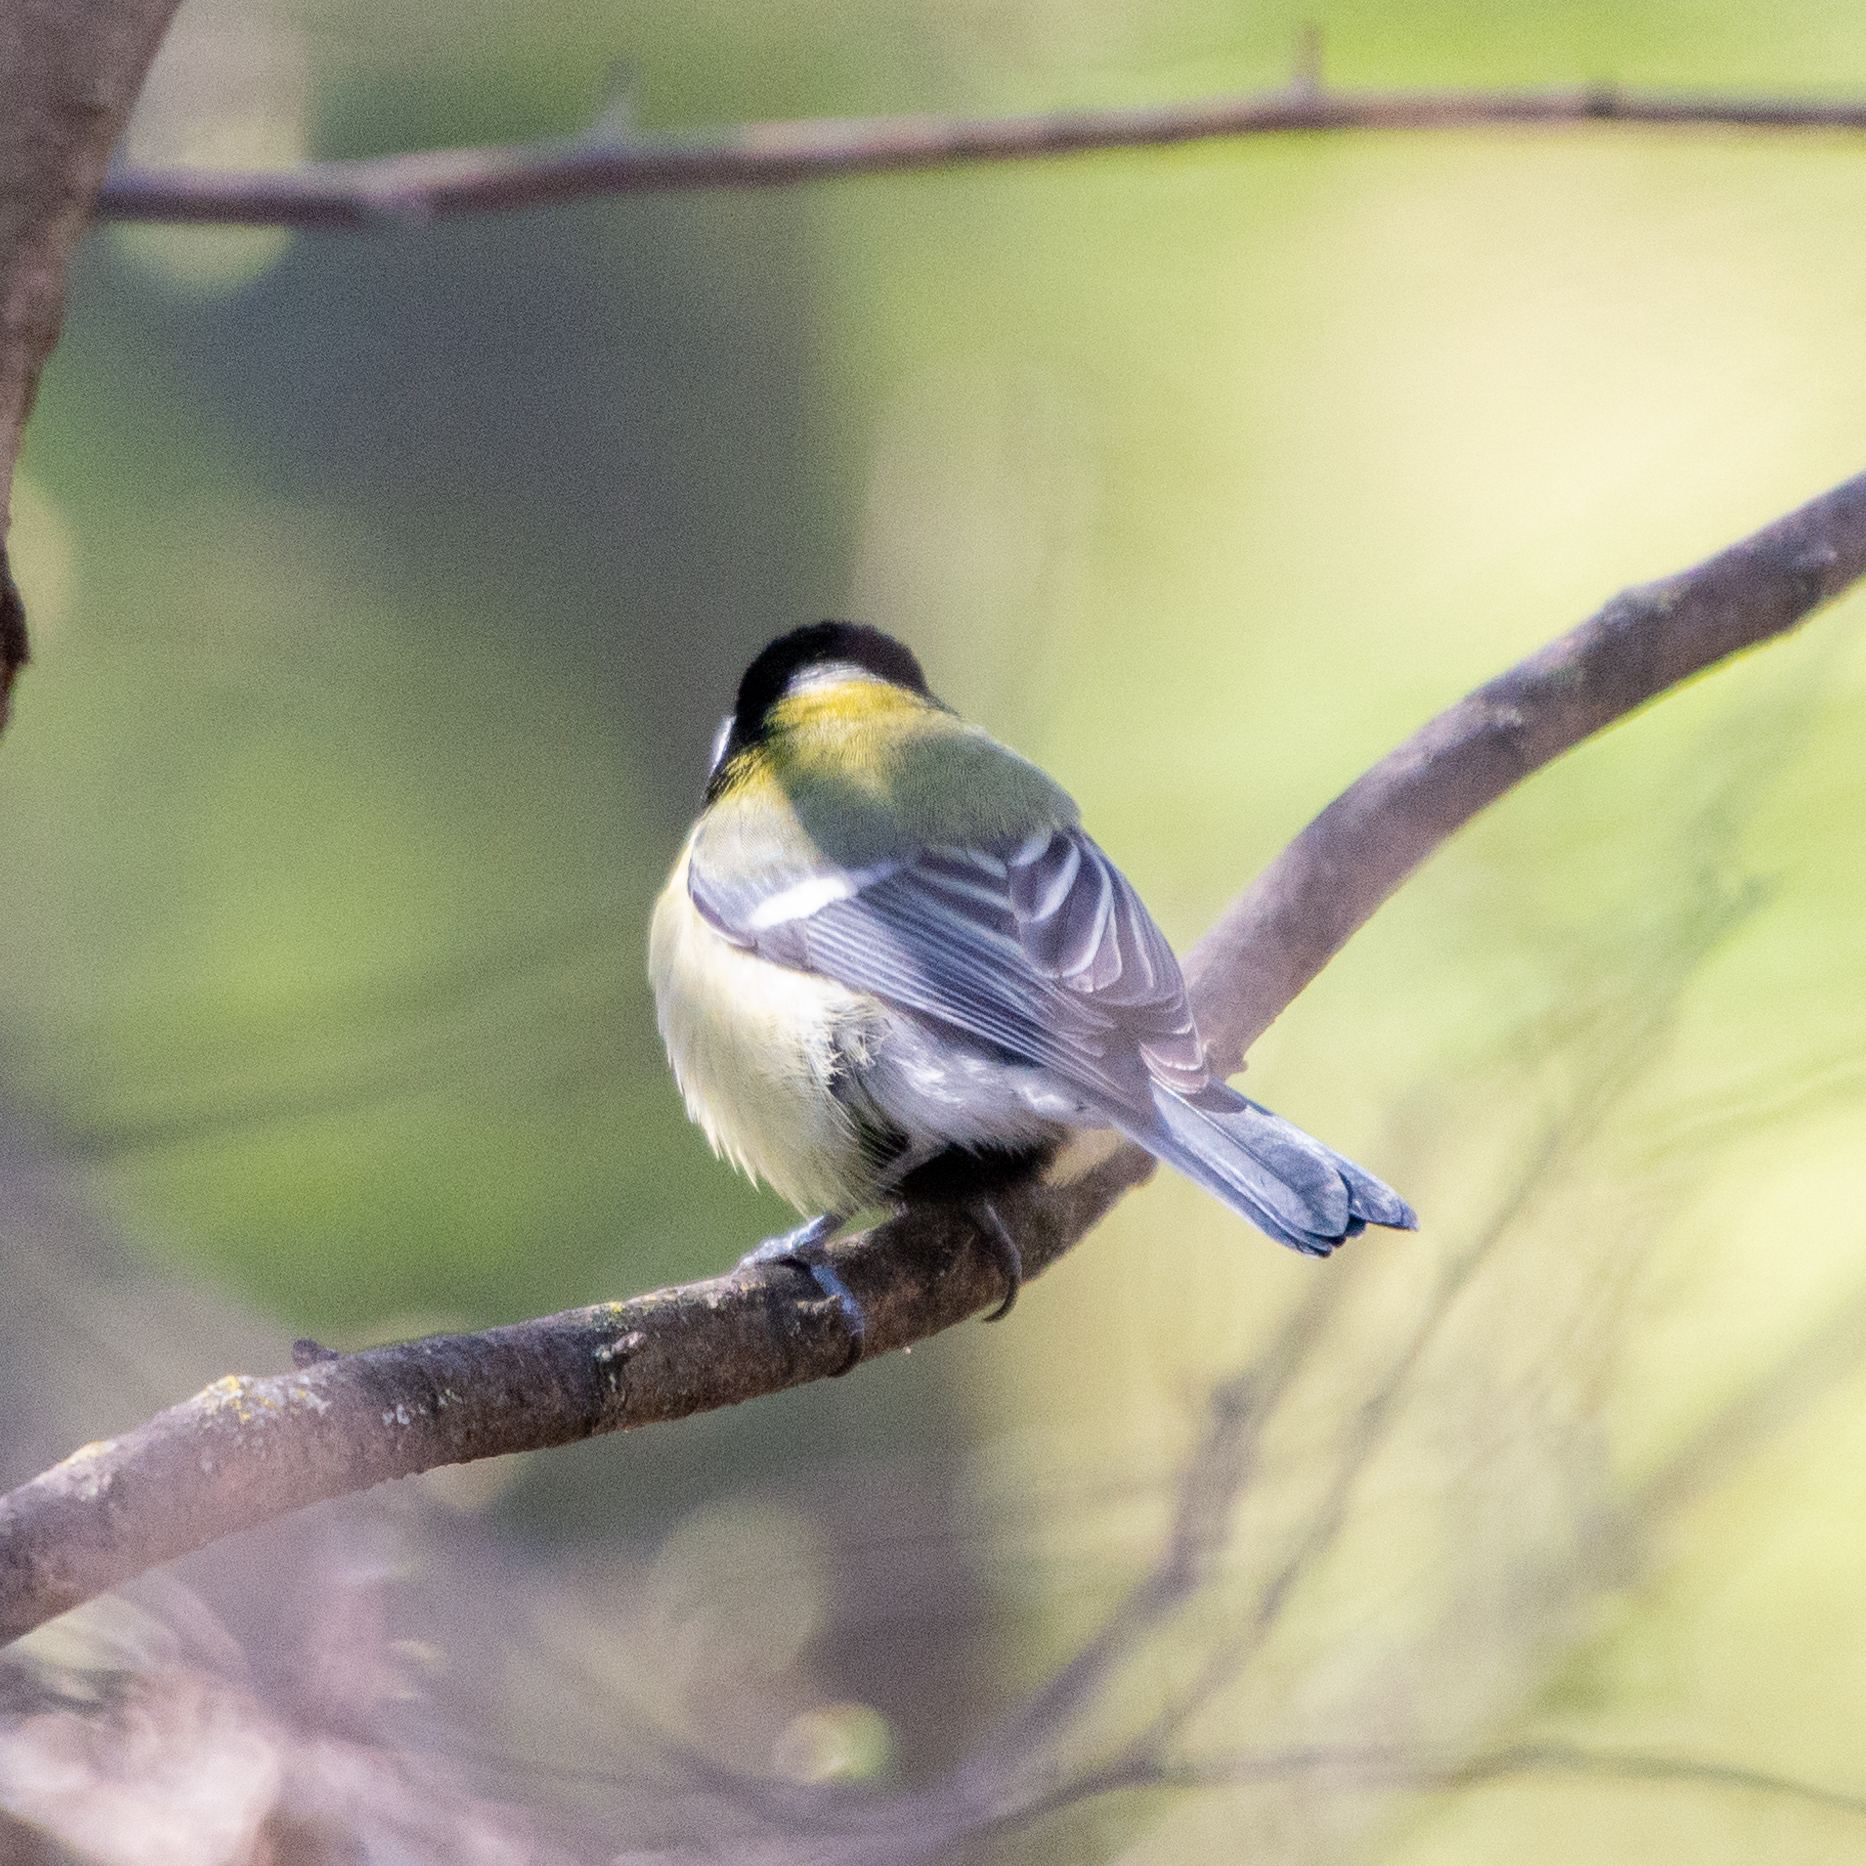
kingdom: Animalia
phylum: Chordata
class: Aves
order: Passeriformes
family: Paridae
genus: Parus
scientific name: Parus major
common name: Great tit
